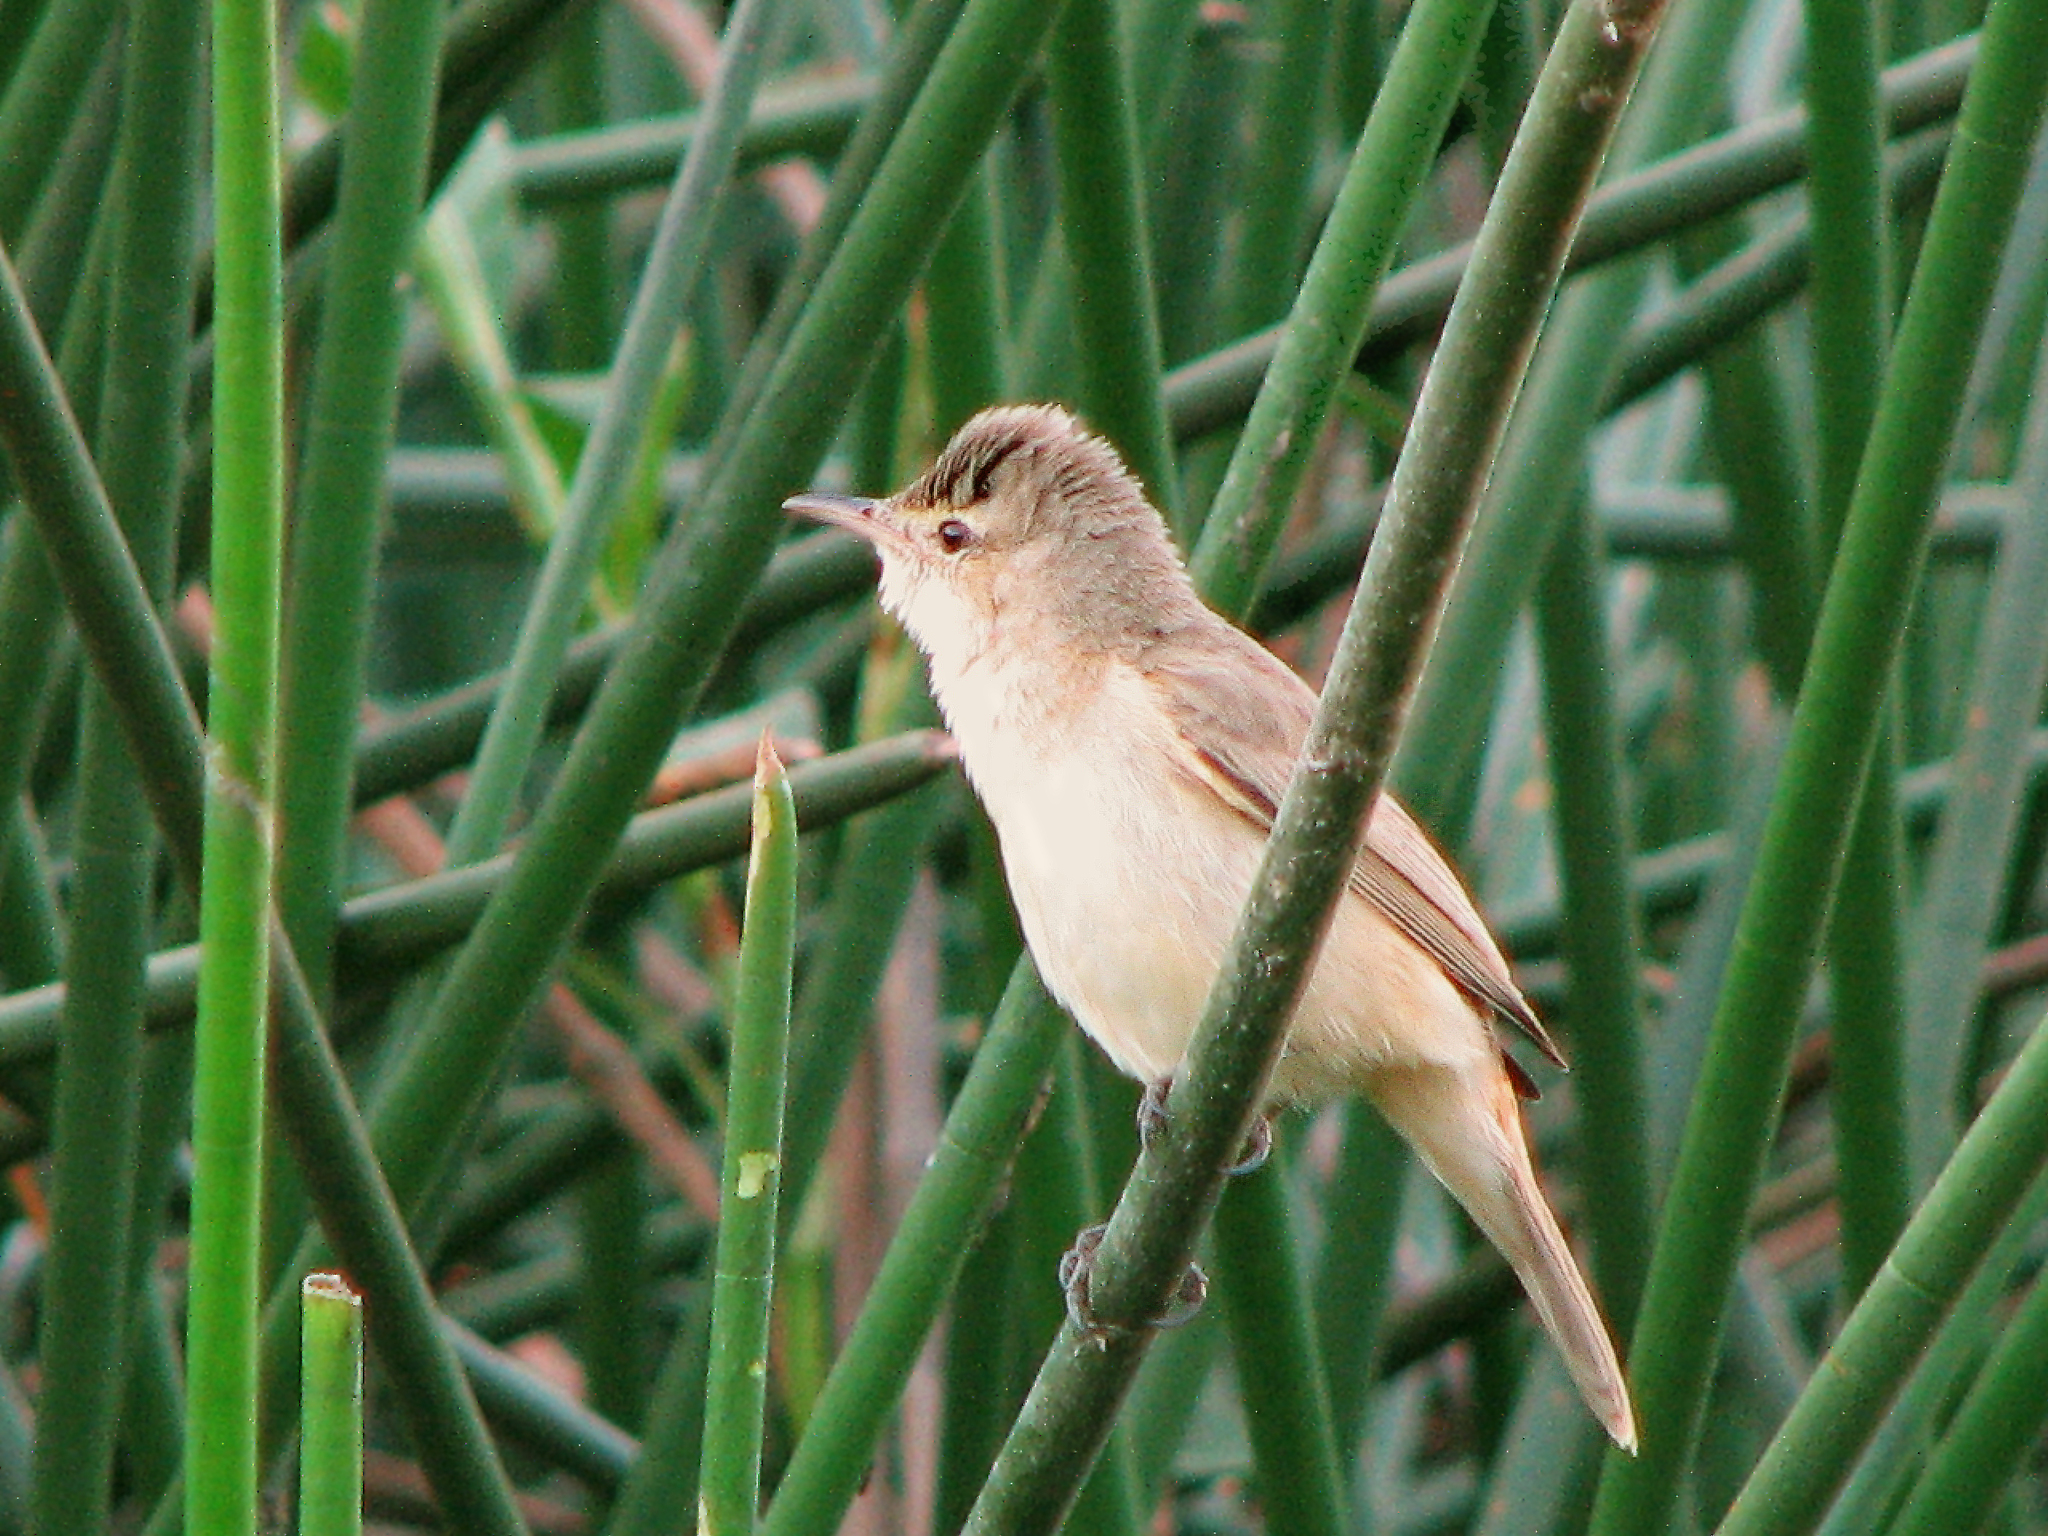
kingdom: Animalia
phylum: Chordata
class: Aves
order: Passeriformes
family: Acrocephalidae
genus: Acrocephalus
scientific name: Acrocephalus australis
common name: Australian reed warbler
